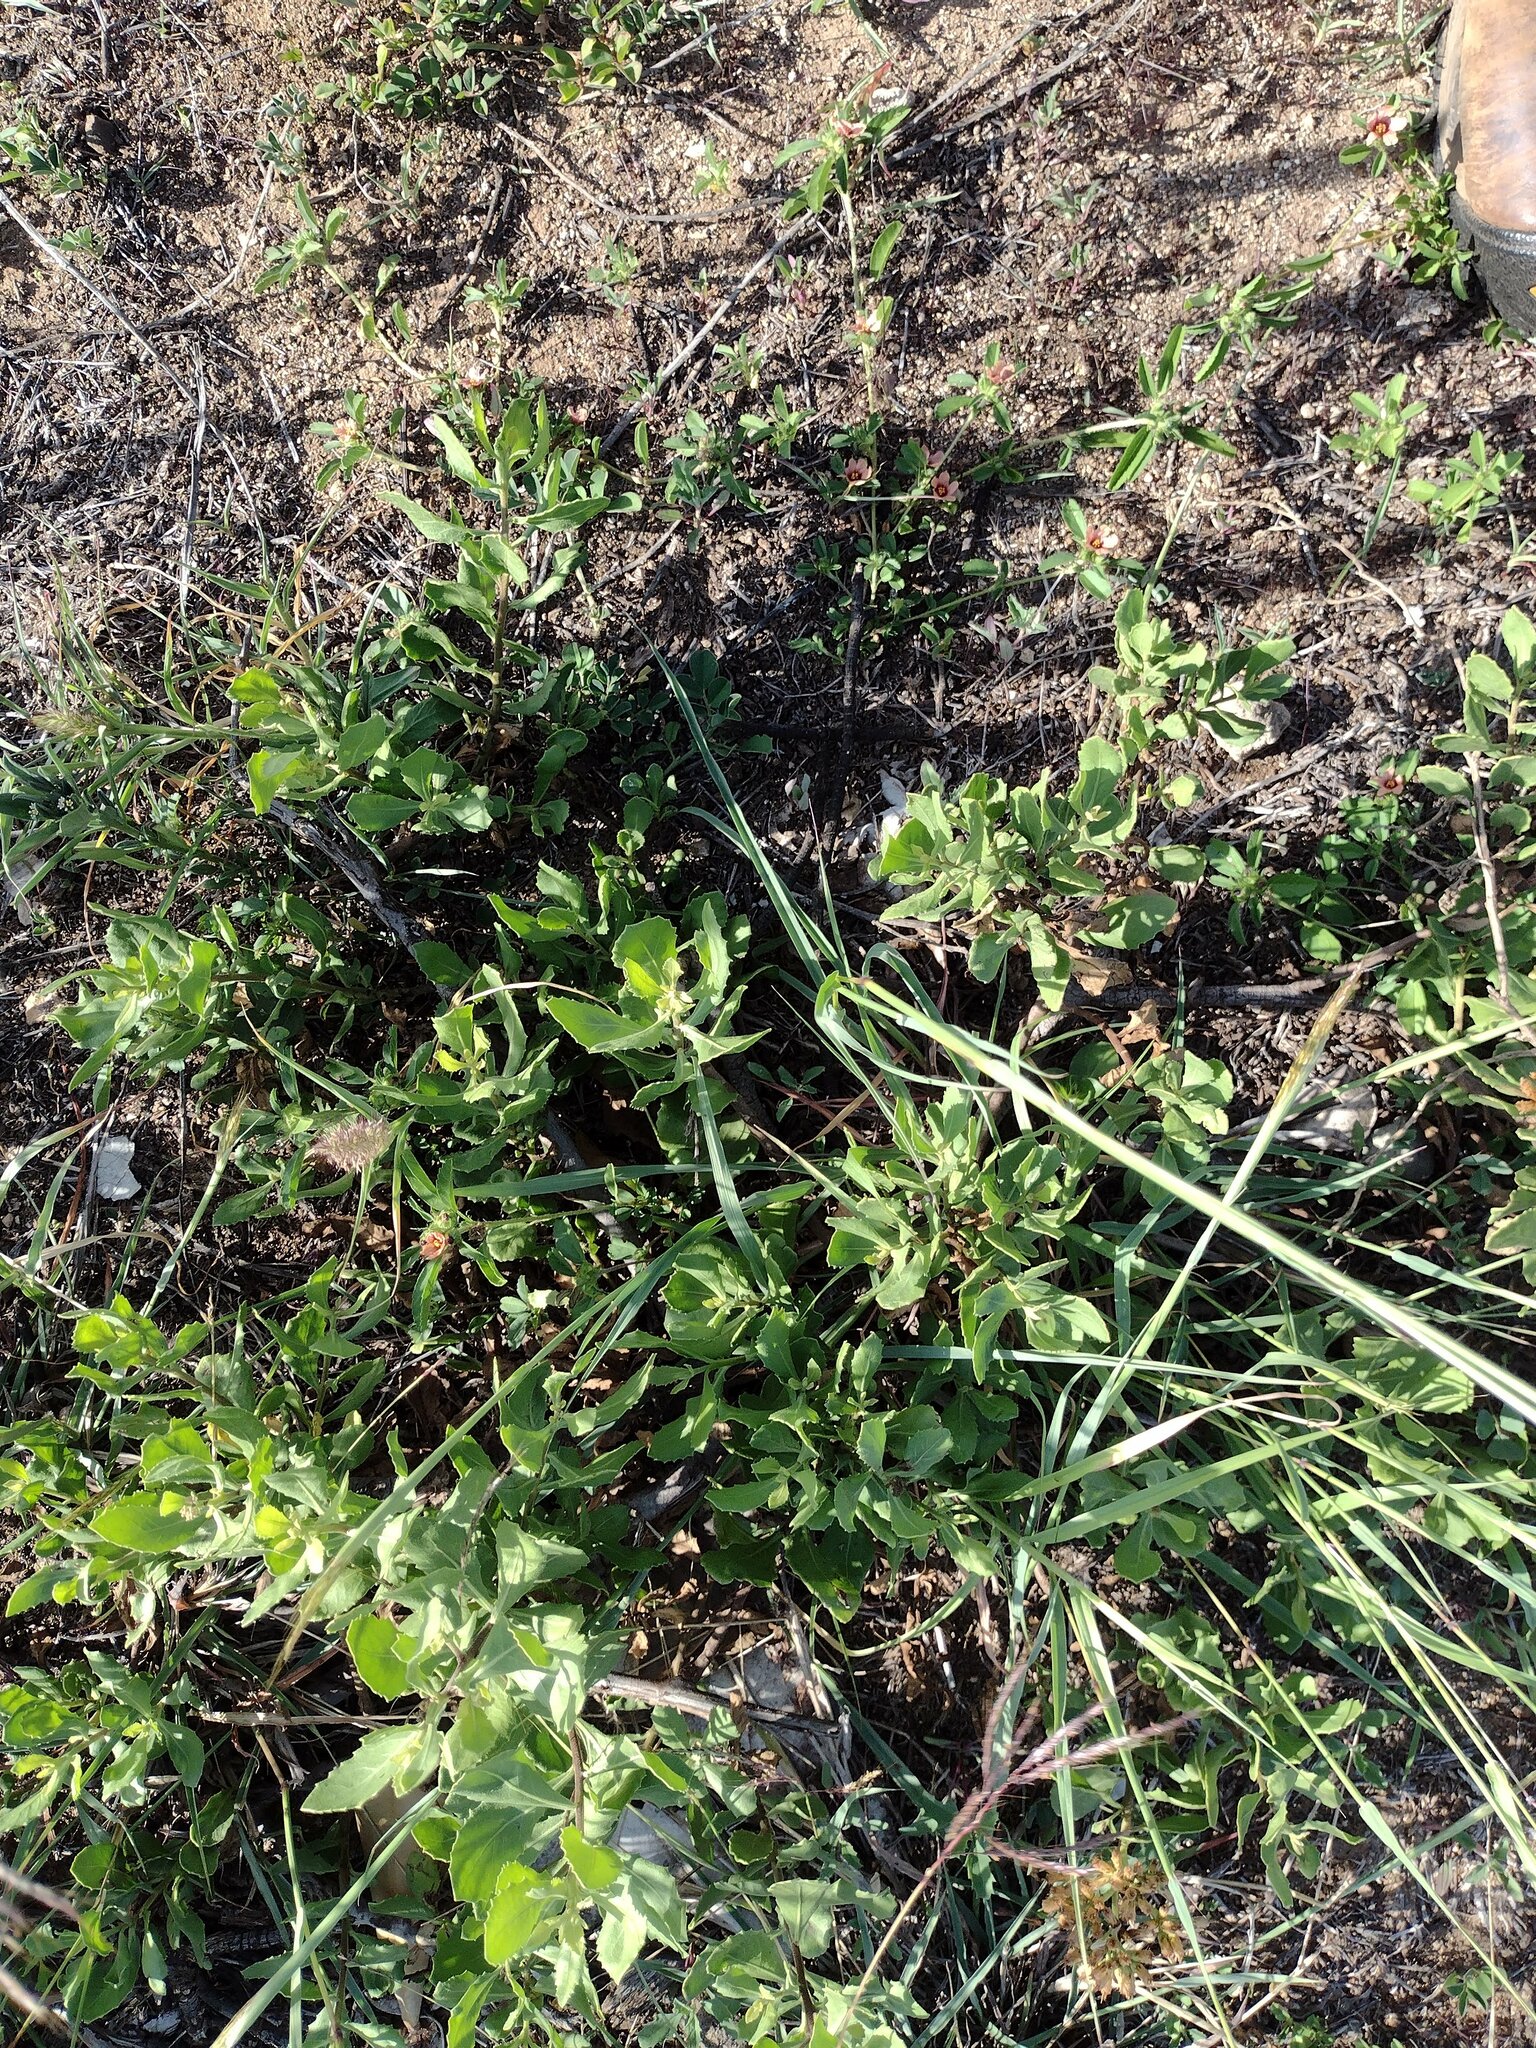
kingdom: Plantae
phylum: Tracheophyta
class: Magnoliopsida
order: Asterales
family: Asteraceae
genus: Pluchea
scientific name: Pluchea indica
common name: Indian fleabane
